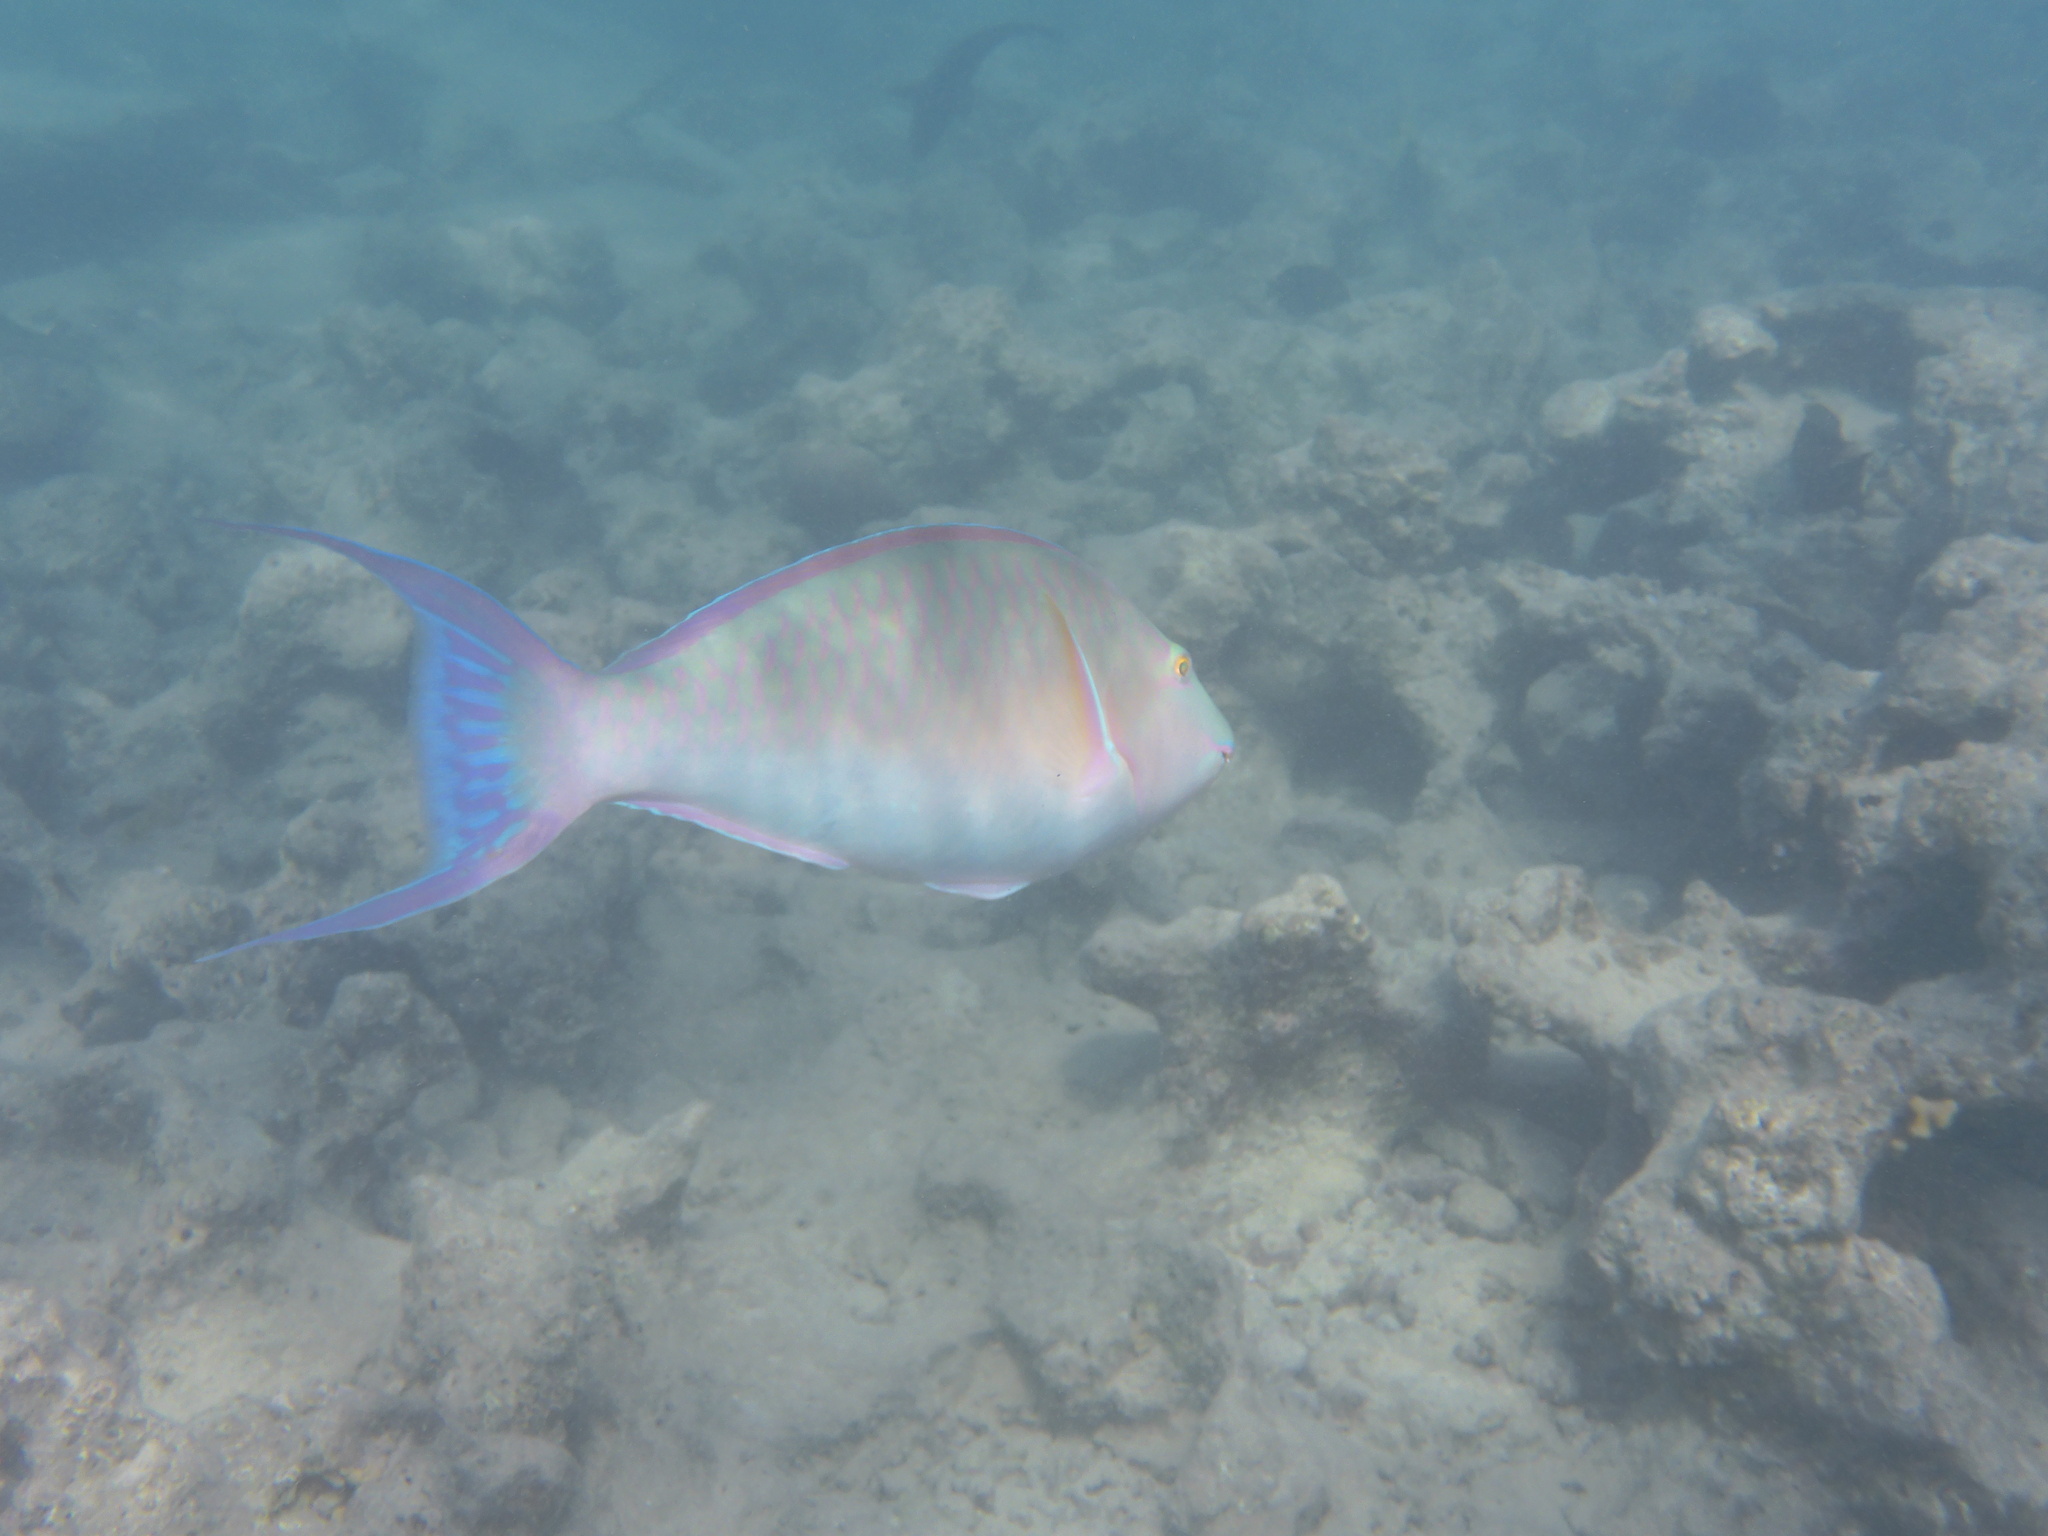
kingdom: Animalia
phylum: Chordata
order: Perciformes
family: Scaridae
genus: Hipposcarus
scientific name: Hipposcarus harid
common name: Candelamoa parrotfish
